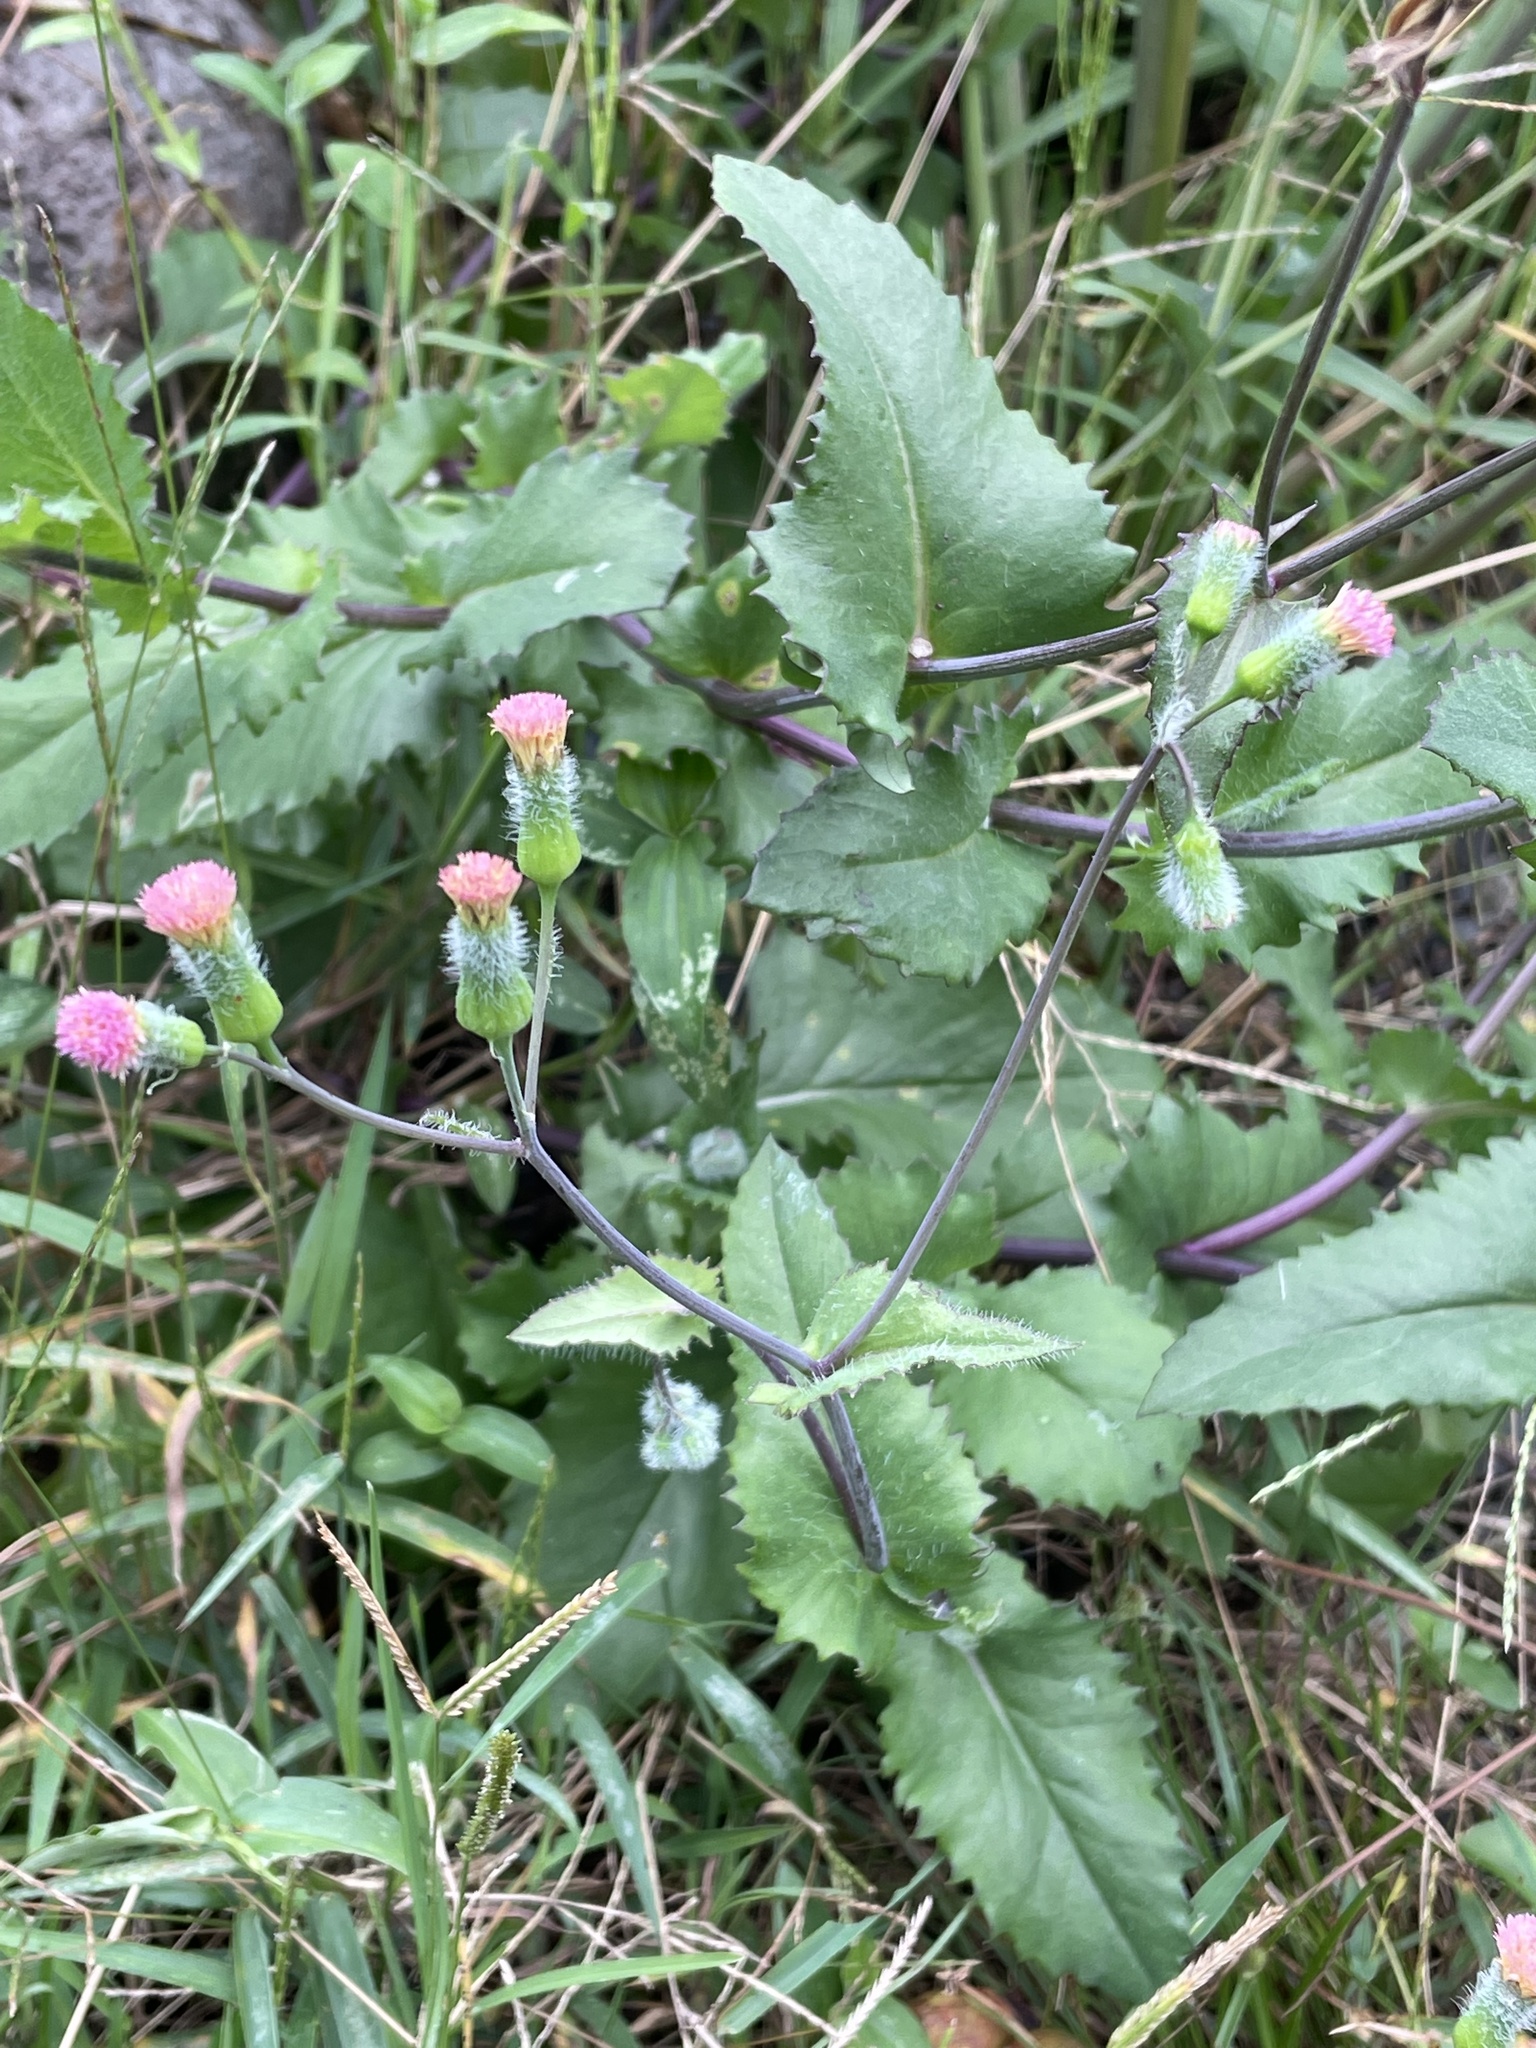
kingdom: Plantae
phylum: Tracheophyta
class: Magnoliopsida
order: Asterales
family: Asteraceae
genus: Emilia
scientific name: Emilia fosbergii
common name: Florida tasselflower
